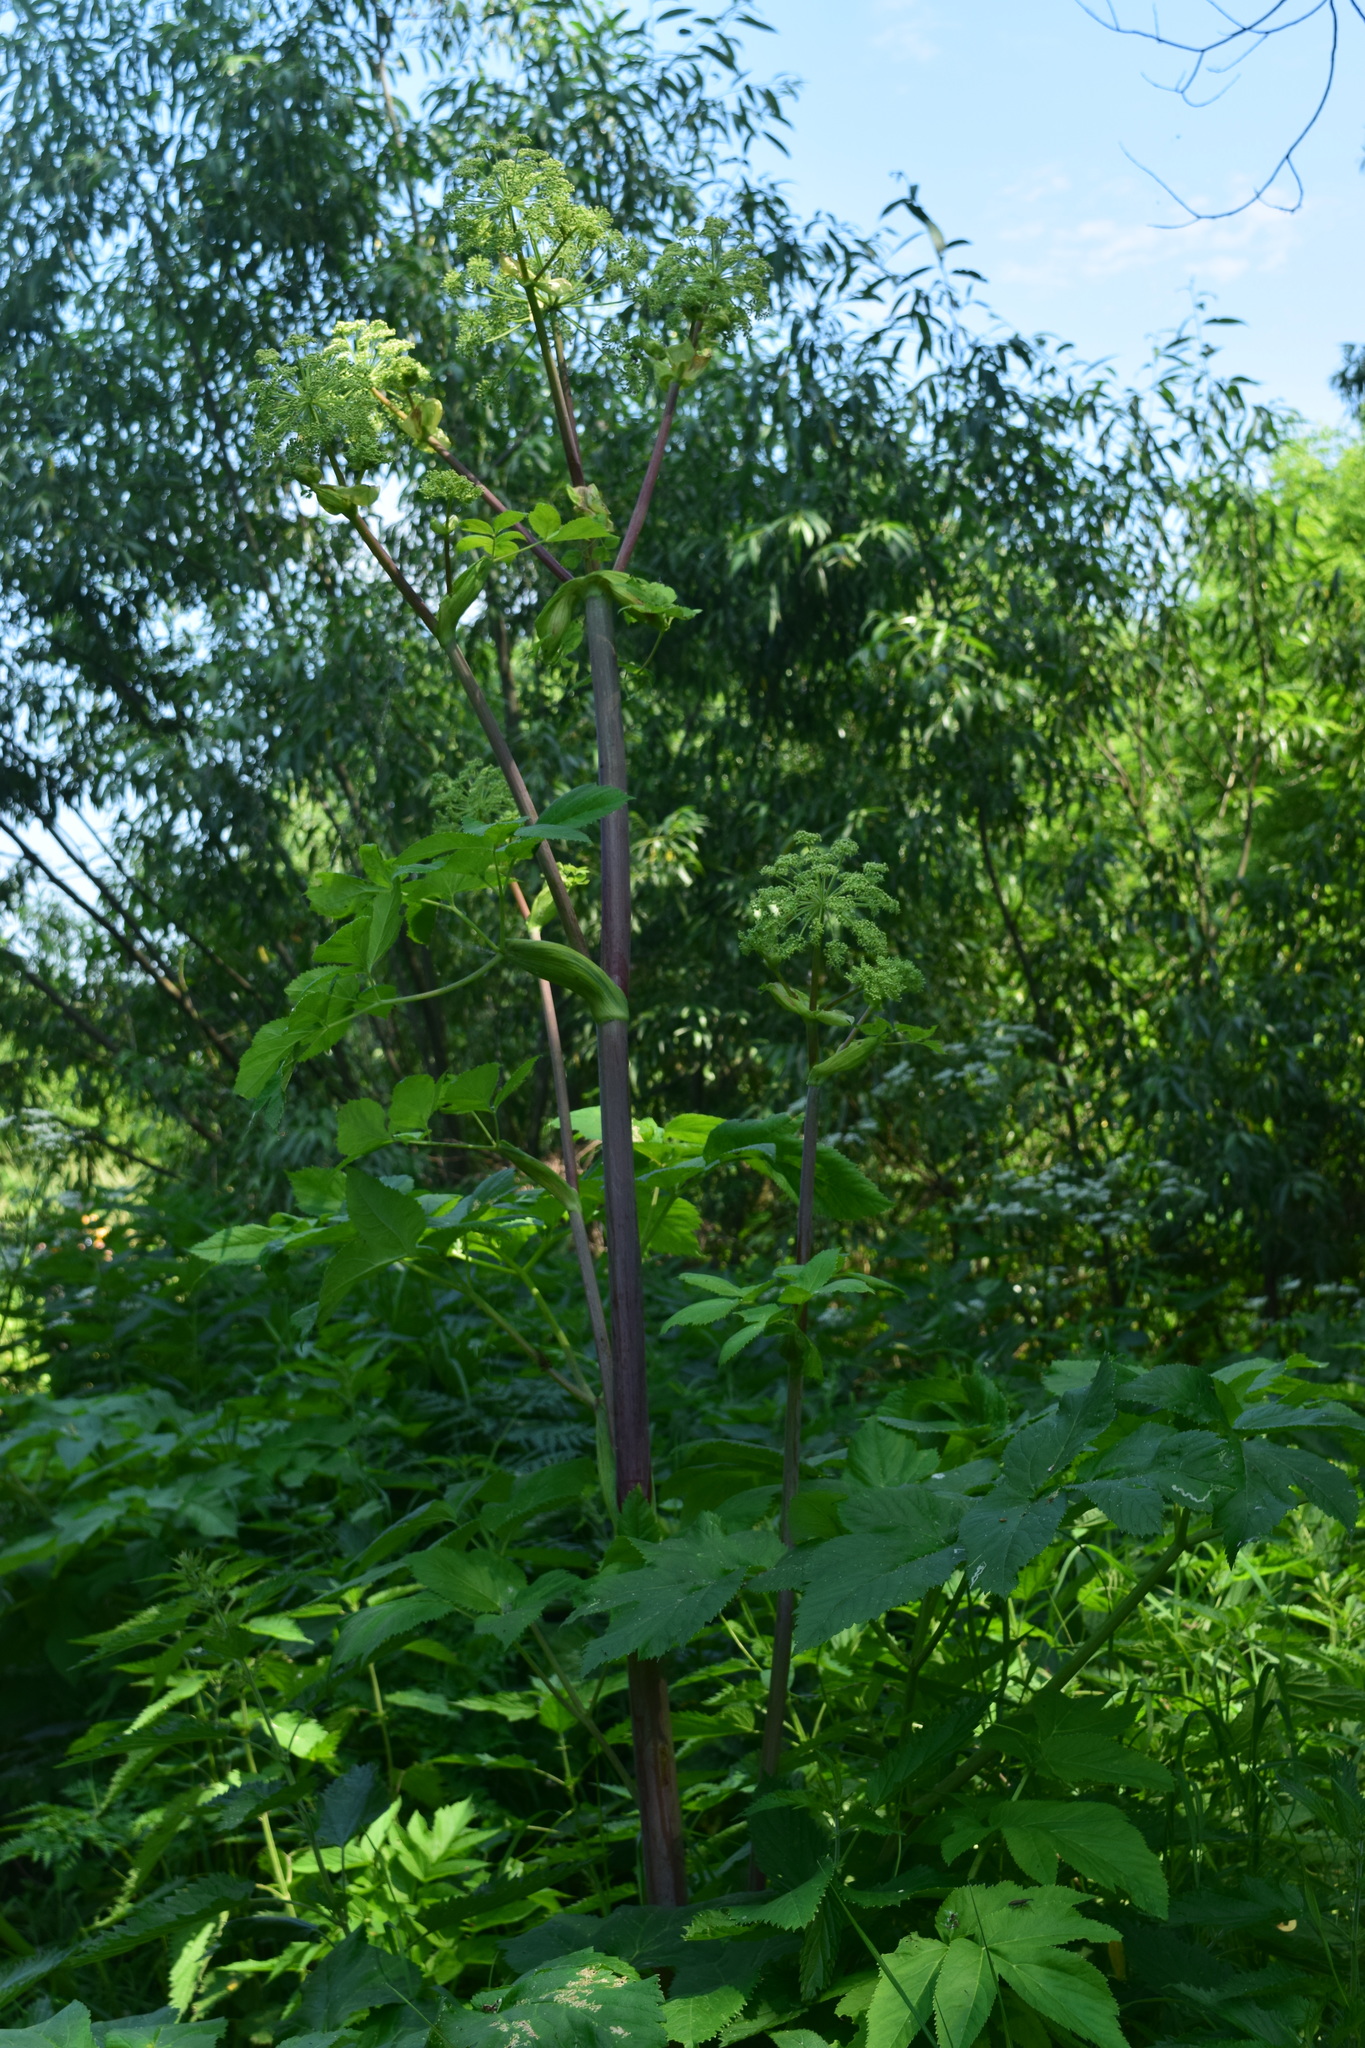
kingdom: Plantae
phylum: Tracheophyta
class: Magnoliopsida
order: Apiales
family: Apiaceae
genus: Angelica
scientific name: Angelica archangelica
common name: Garden angelica
